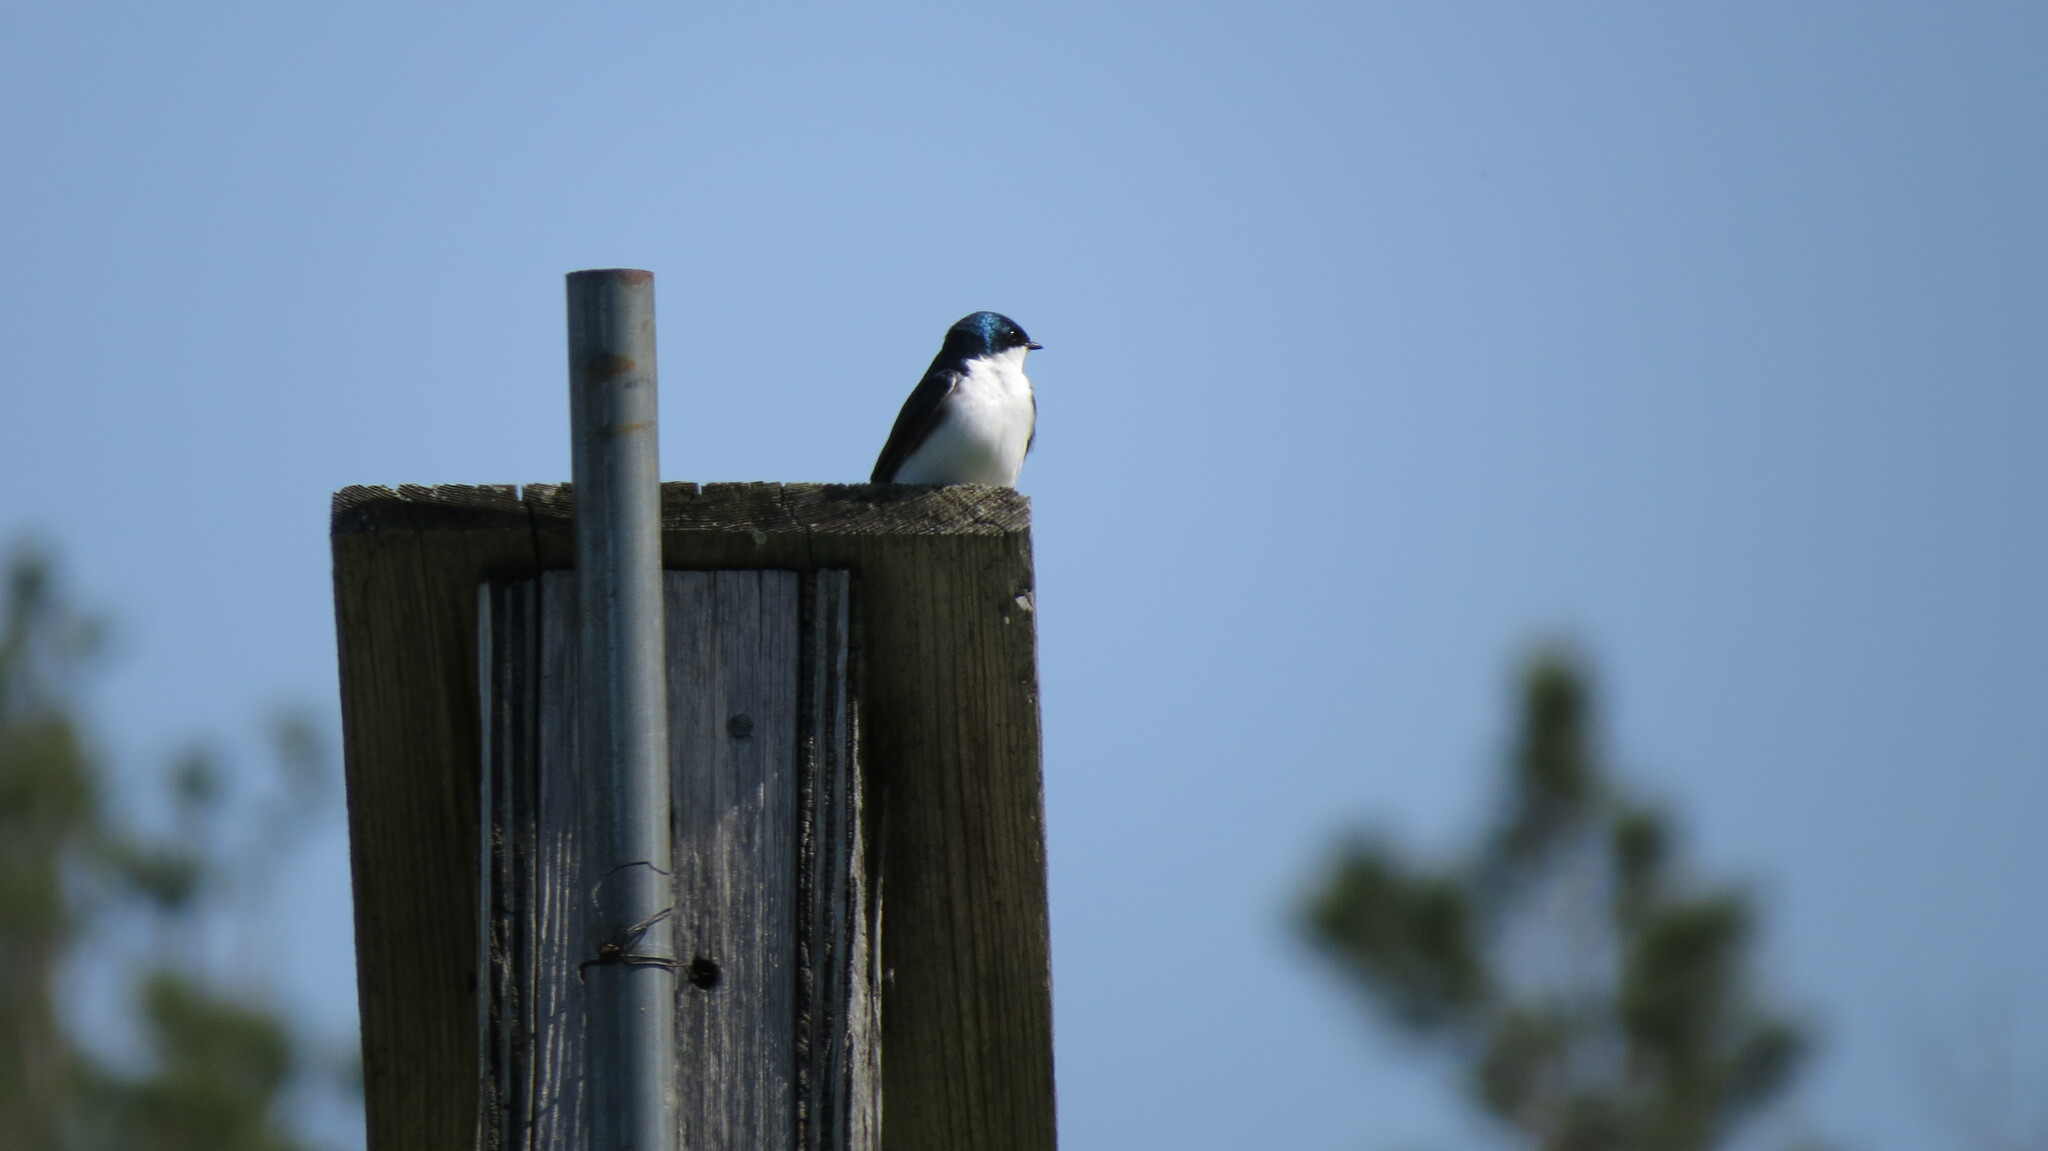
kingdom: Animalia
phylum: Chordata
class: Aves
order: Passeriformes
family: Hirundinidae
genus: Tachycineta
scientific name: Tachycineta bicolor
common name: Tree swallow
